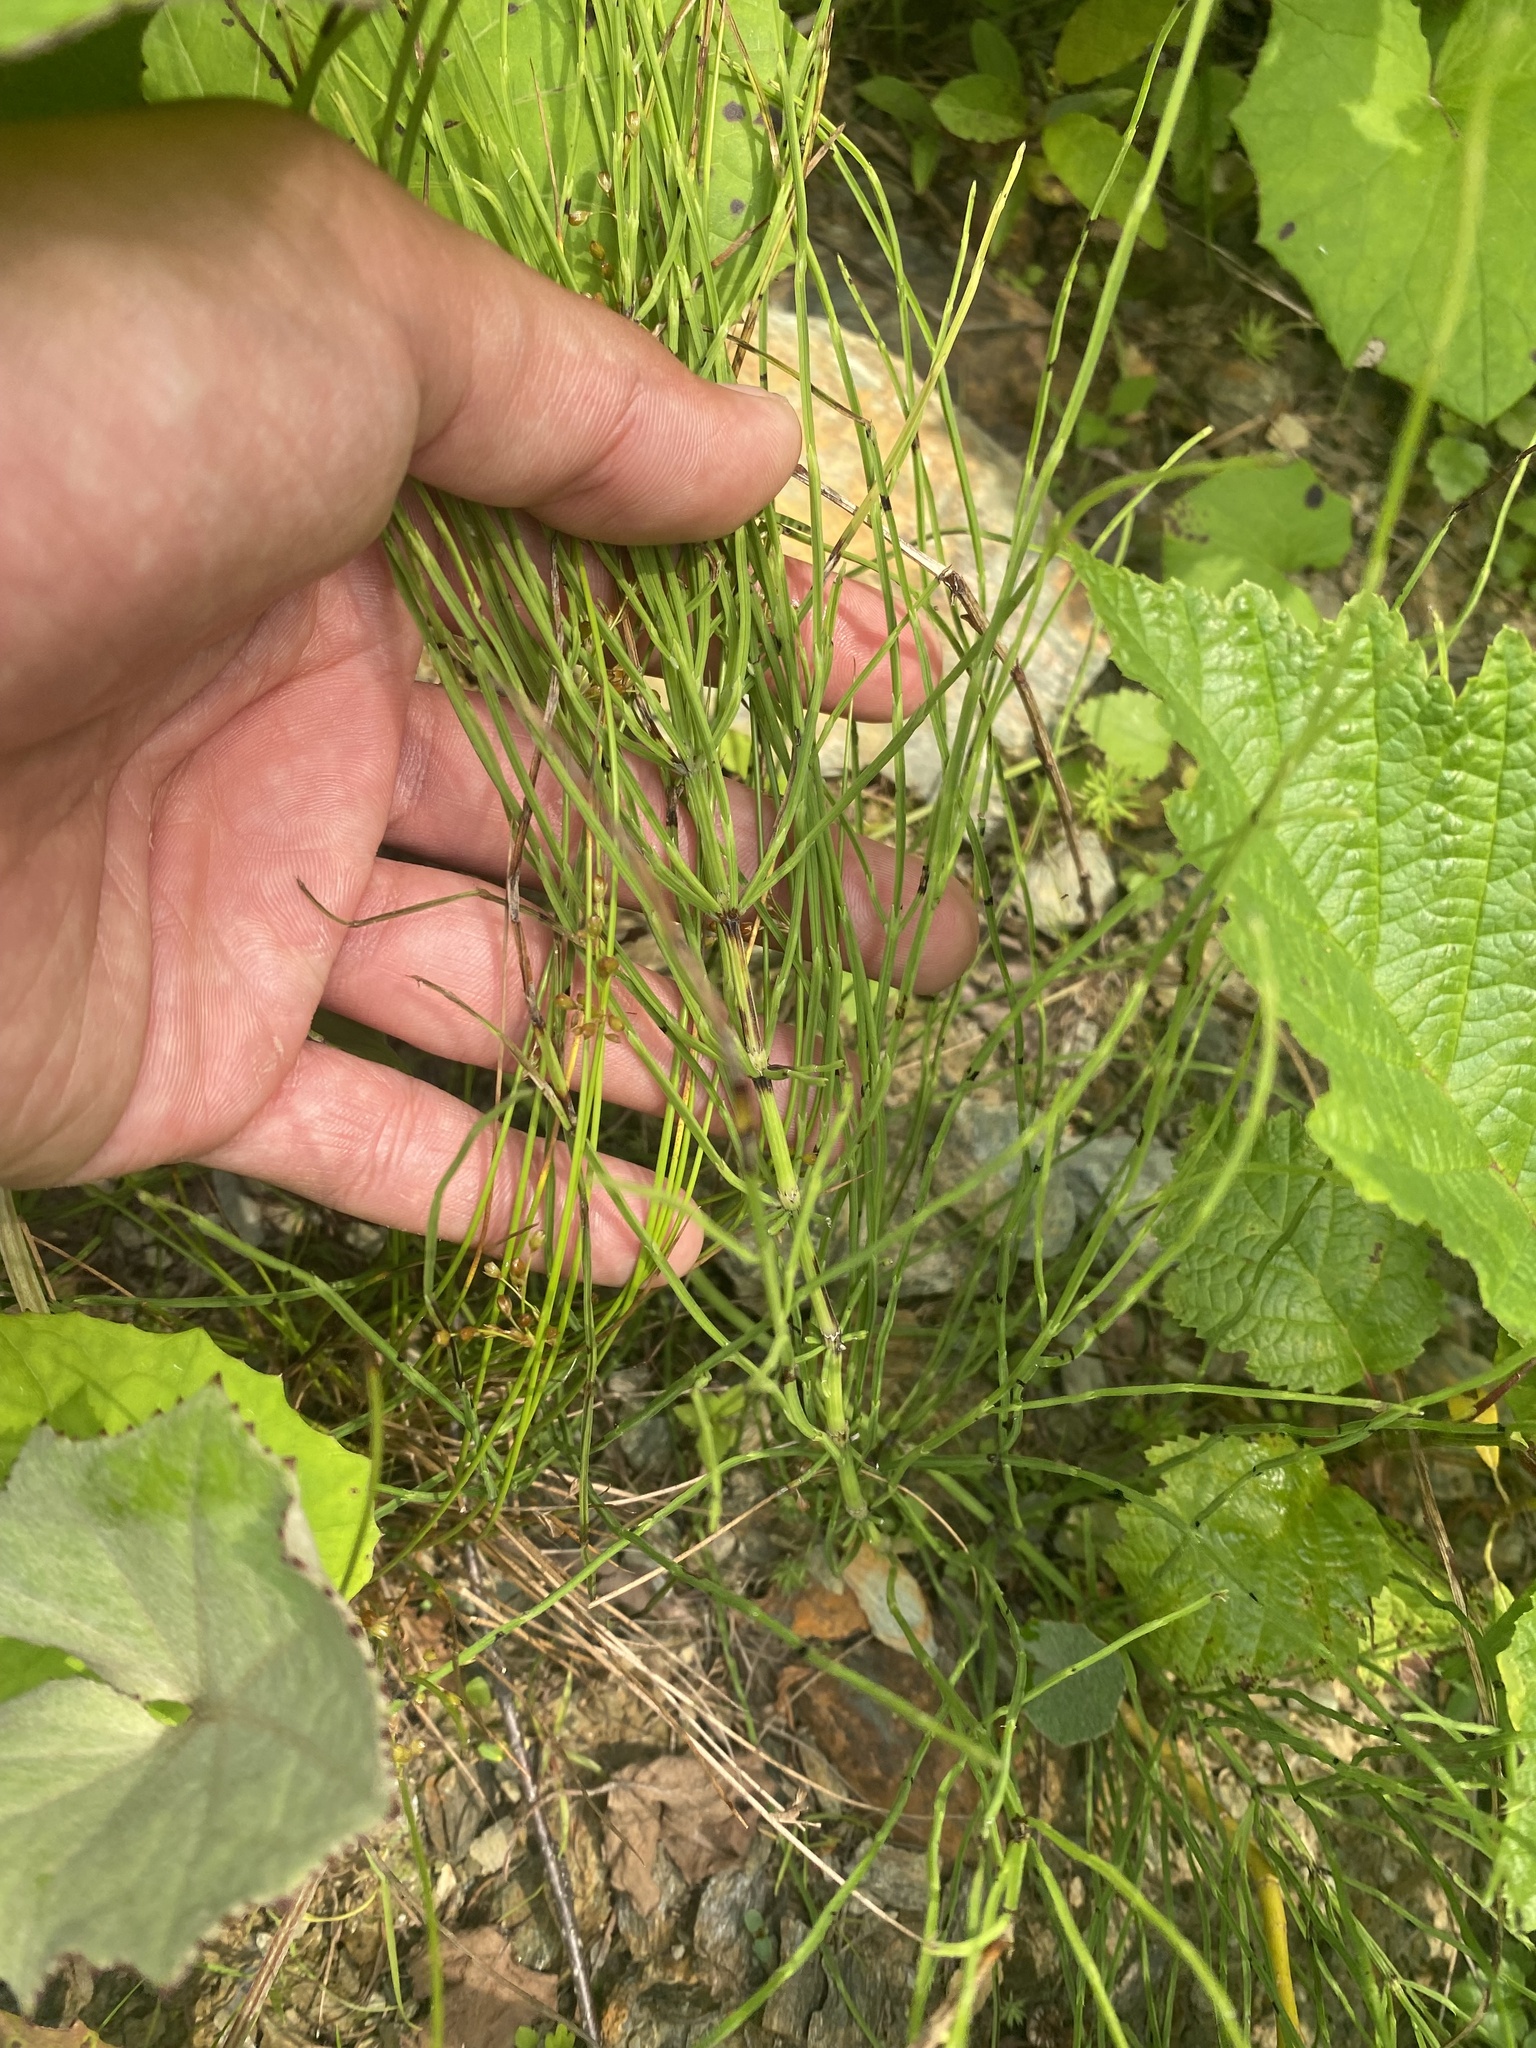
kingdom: Plantae
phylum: Tracheophyta
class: Polypodiopsida
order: Equisetales
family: Equisetaceae
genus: Equisetum
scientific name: Equisetum arvense
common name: Field horsetail
